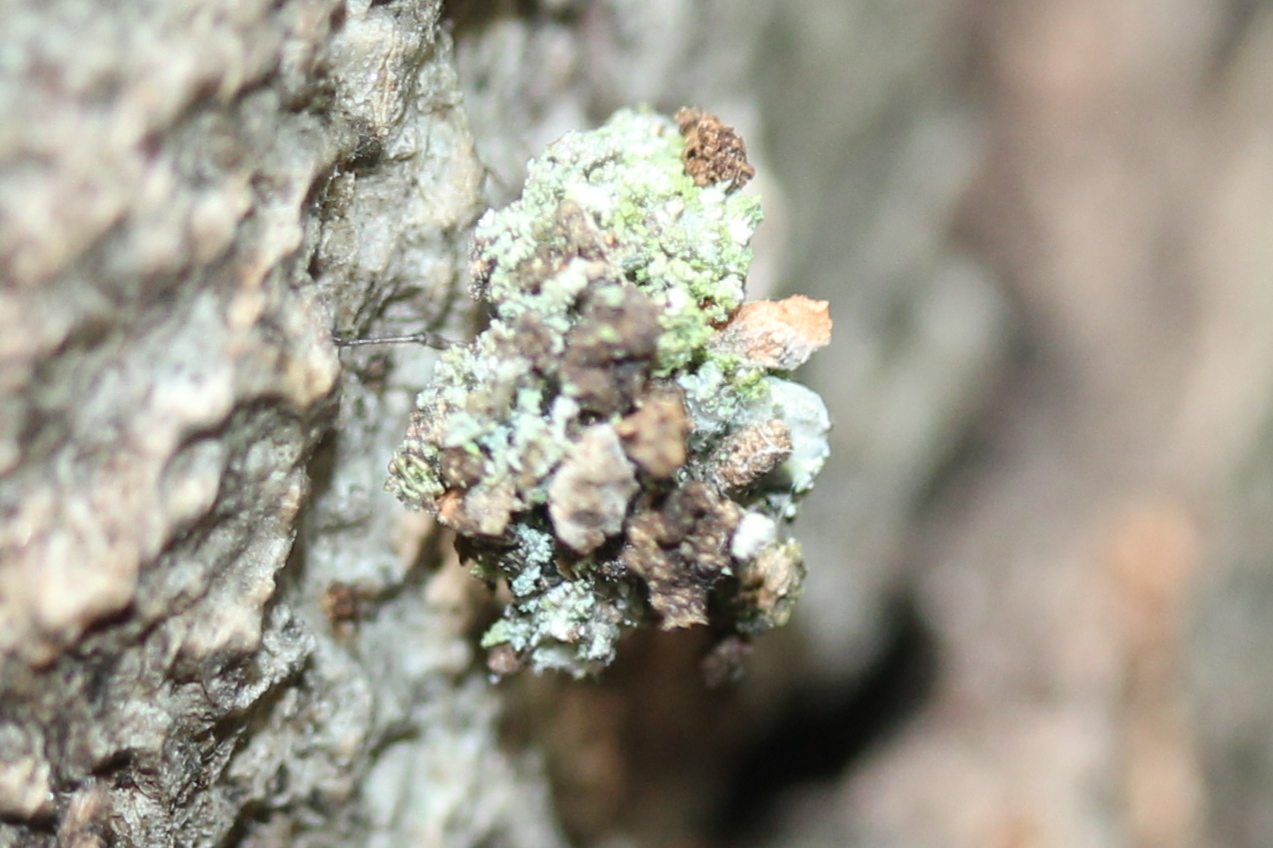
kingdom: Animalia
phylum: Arthropoda
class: Insecta
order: Neuroptera
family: Chrysopidae
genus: Leucochrysa
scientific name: Leucochrysa pavida
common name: Lichen-carrying green lacewing
